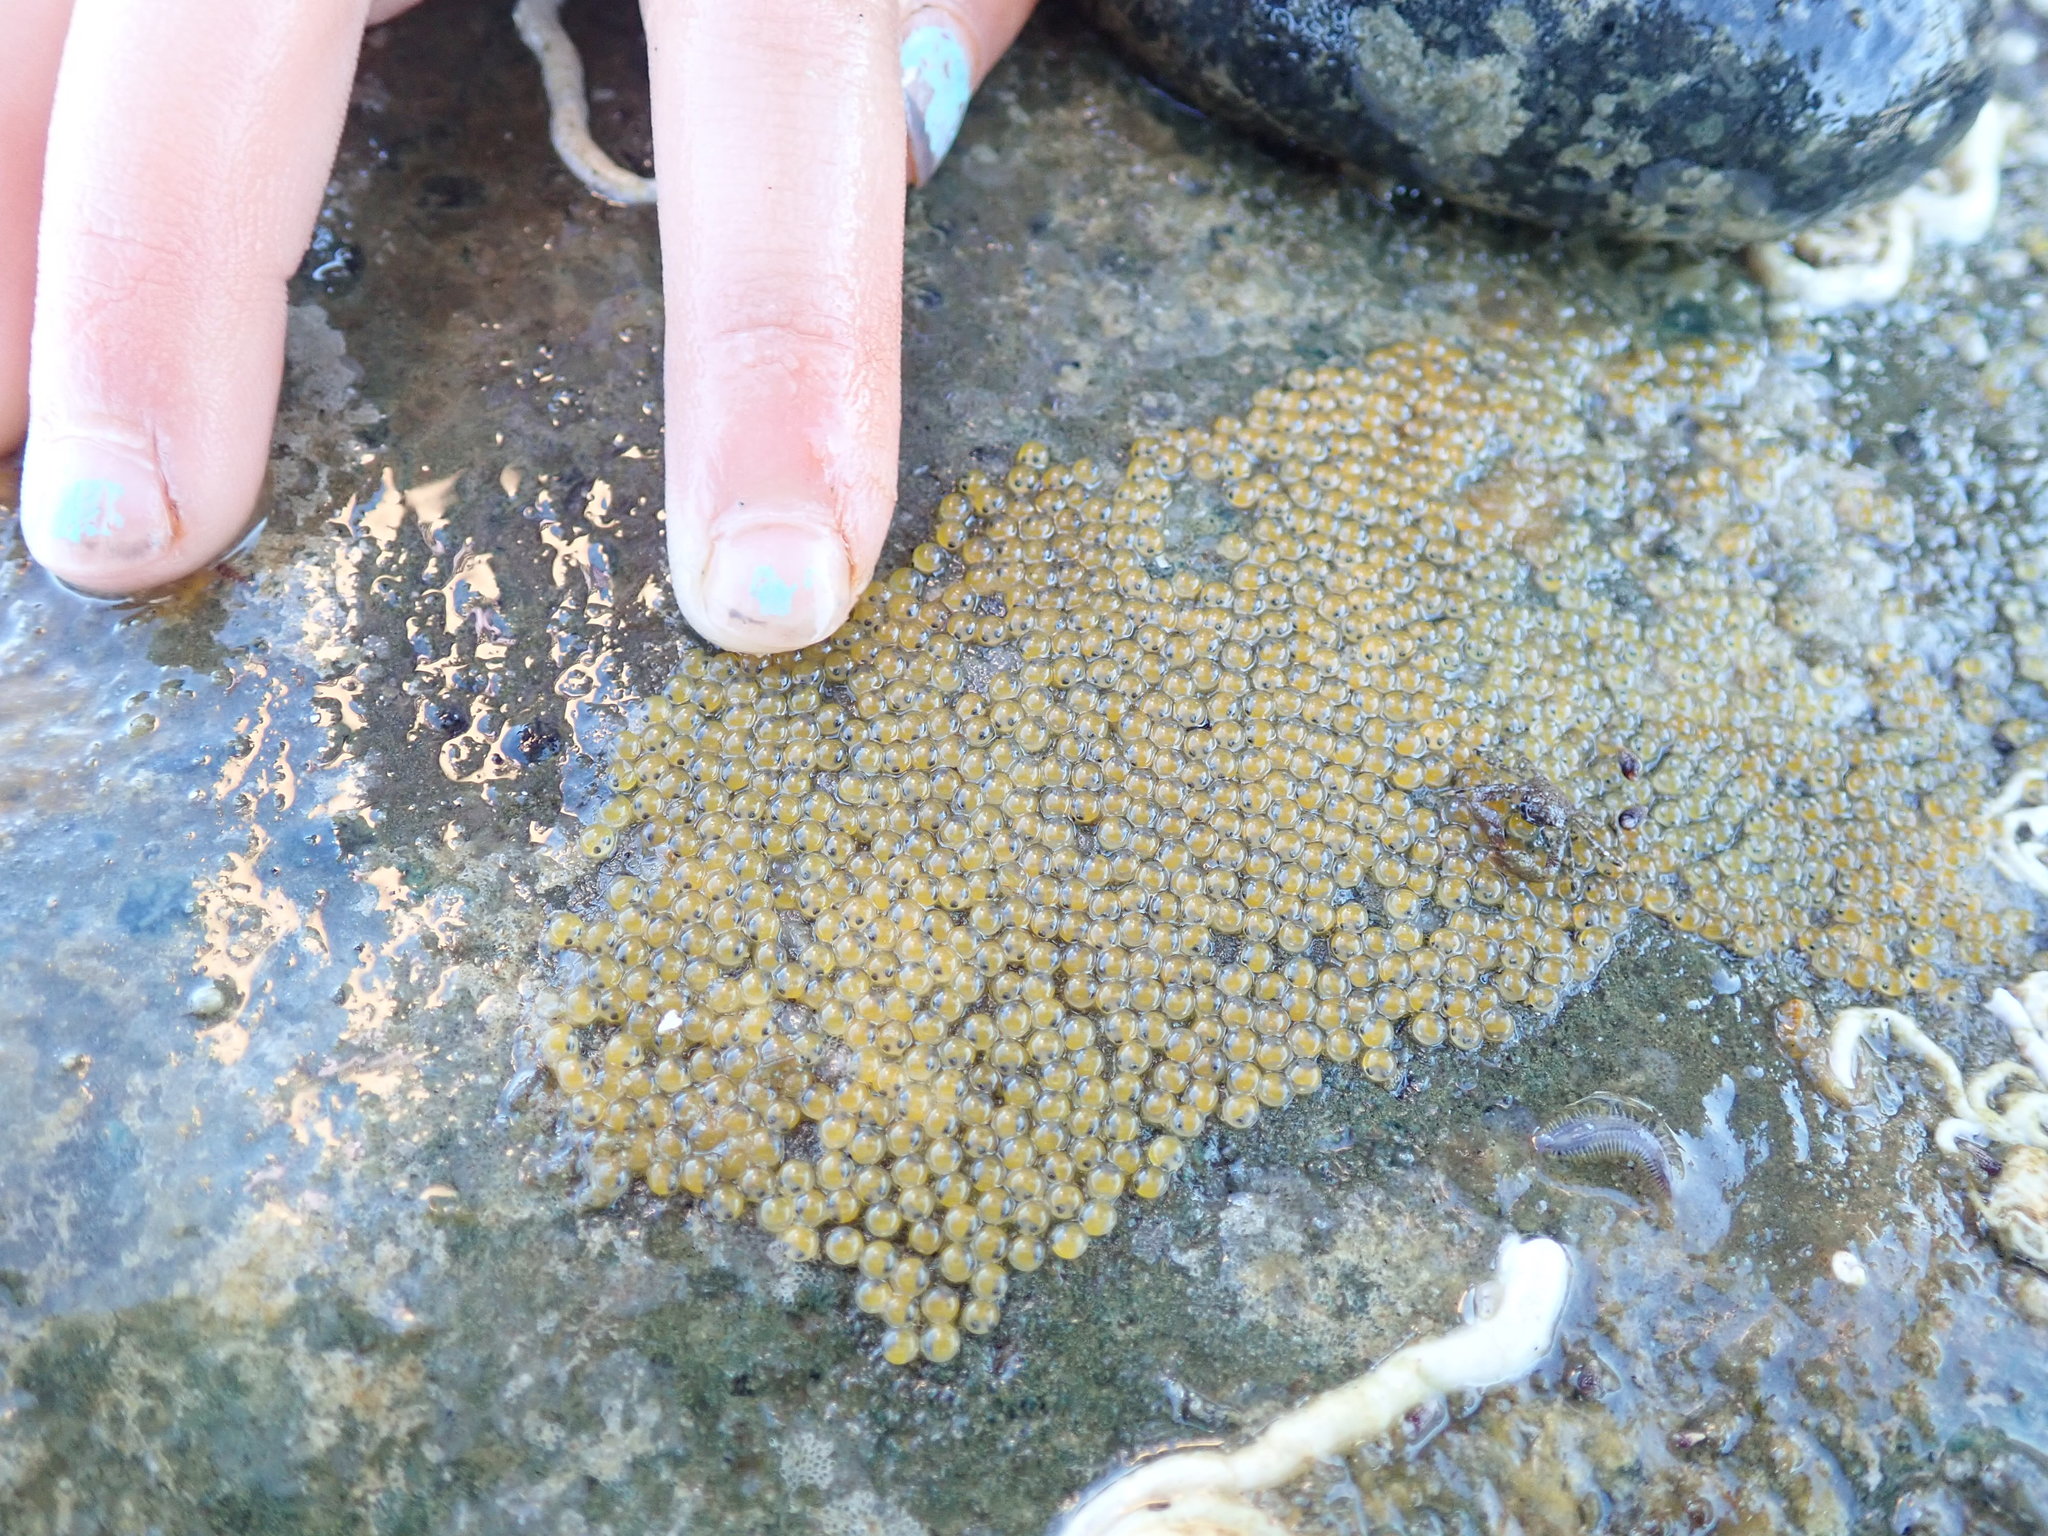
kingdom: Animalia
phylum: Chordata
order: Gobiesociformes
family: Gobiesocidae
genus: Gobiesox
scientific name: Gobiesox maeandricus
